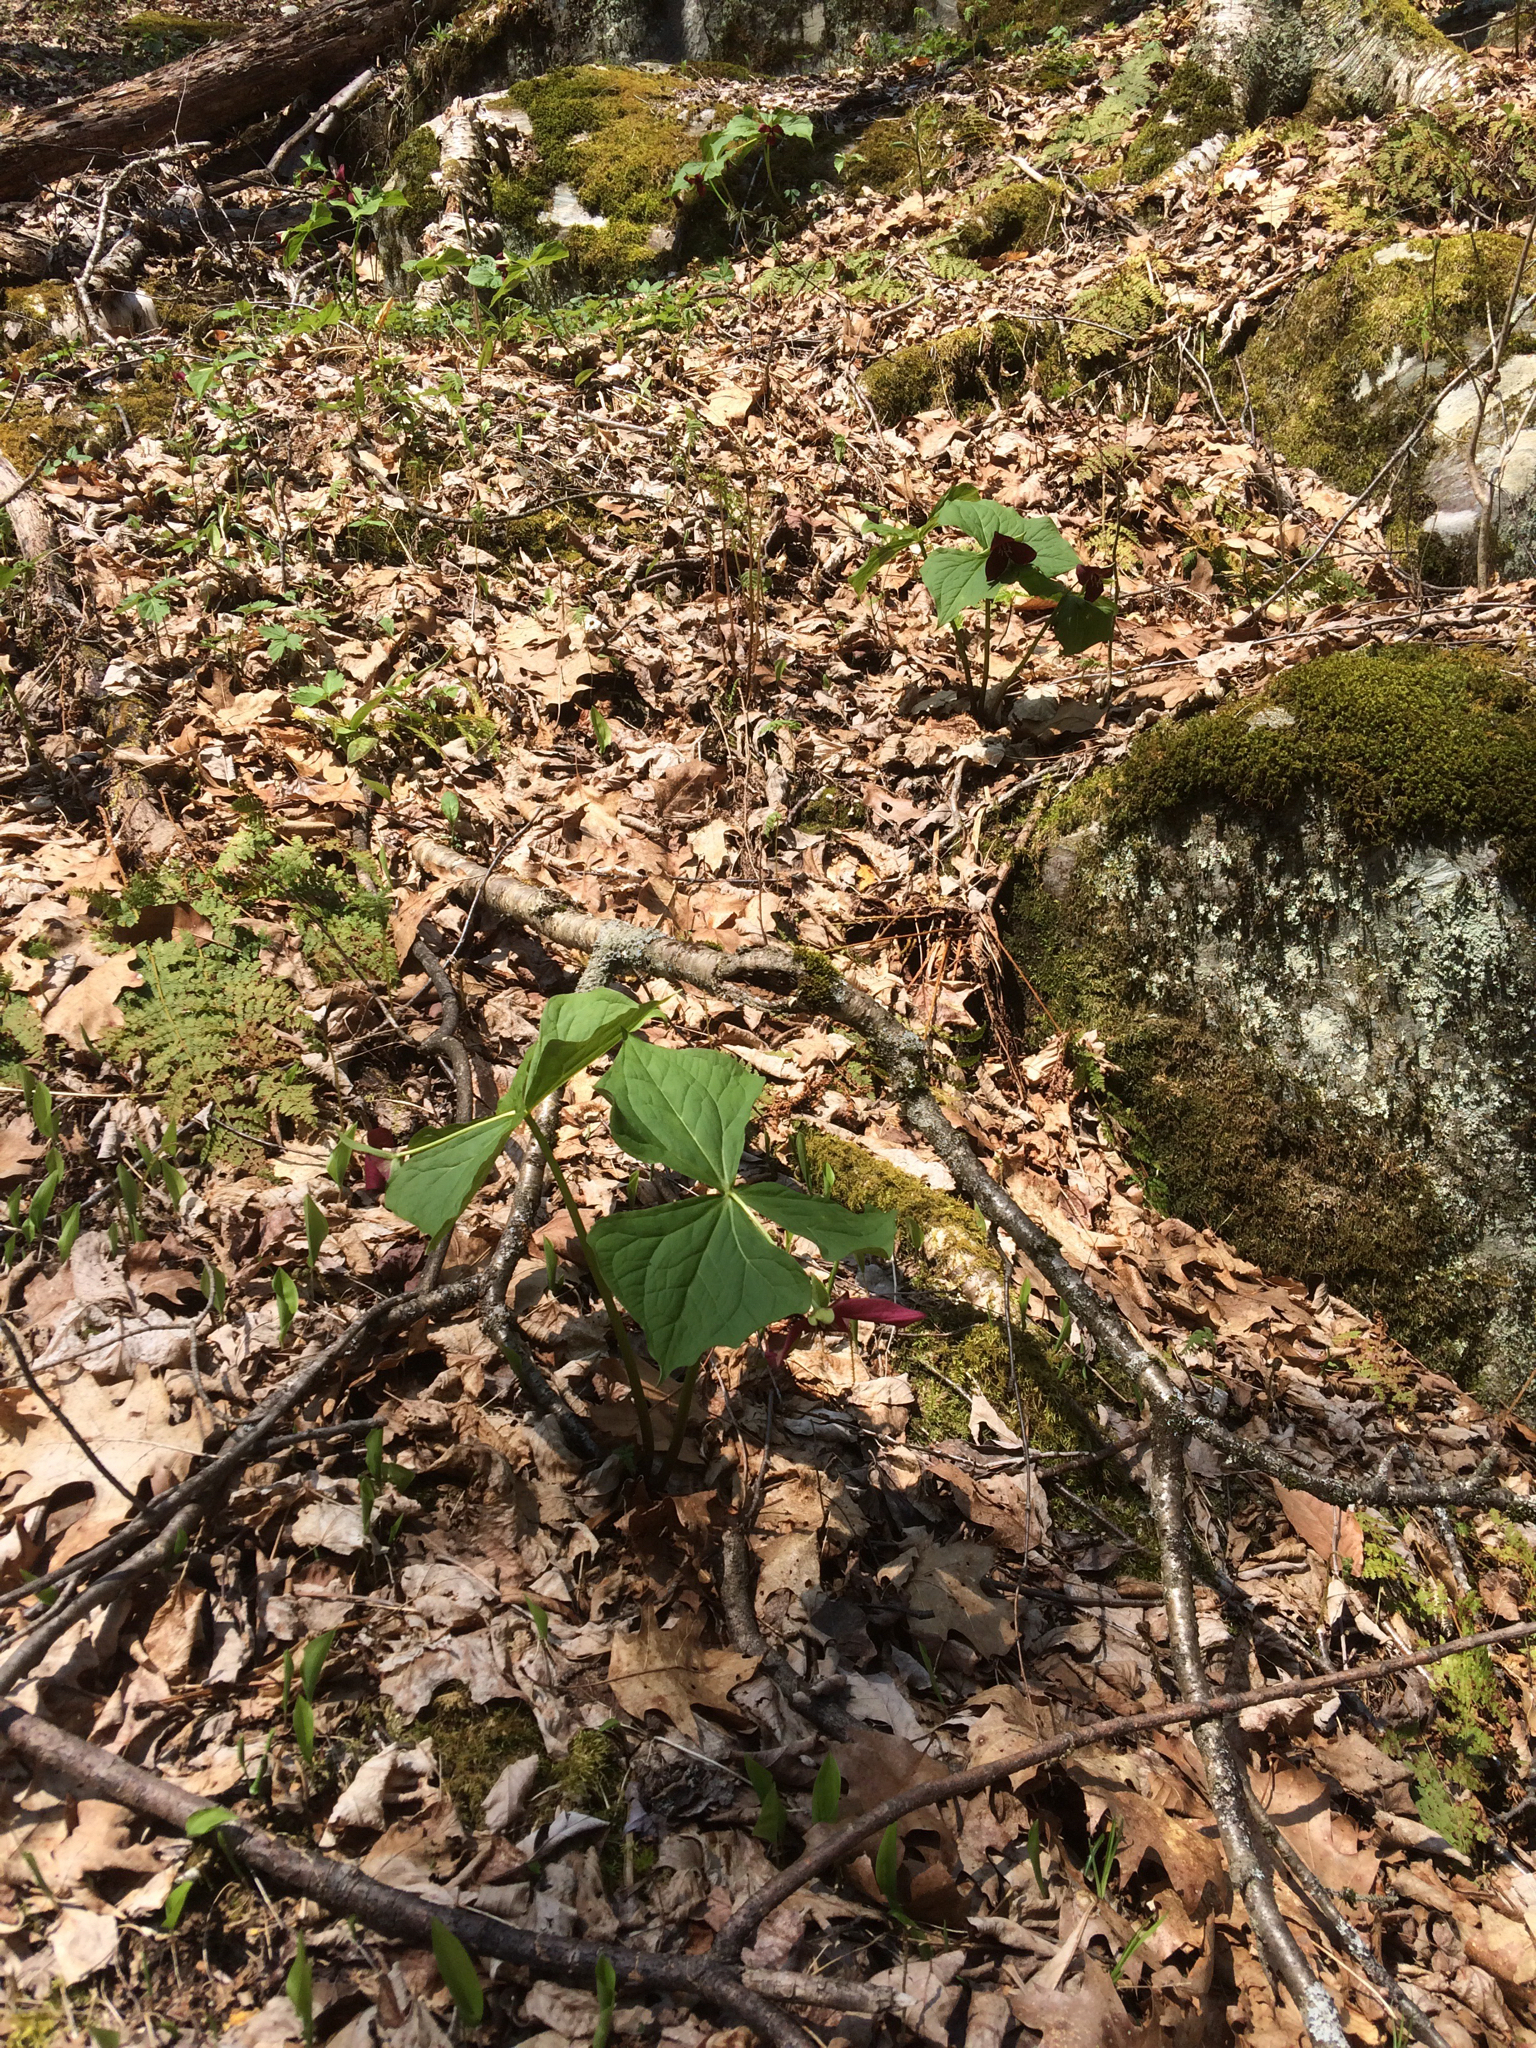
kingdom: Plantae
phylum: Tracheophyta
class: Liliopsida
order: Liliales
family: Melanthiaceae
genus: Trillium
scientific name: Trillium erectum
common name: Purple trillium
